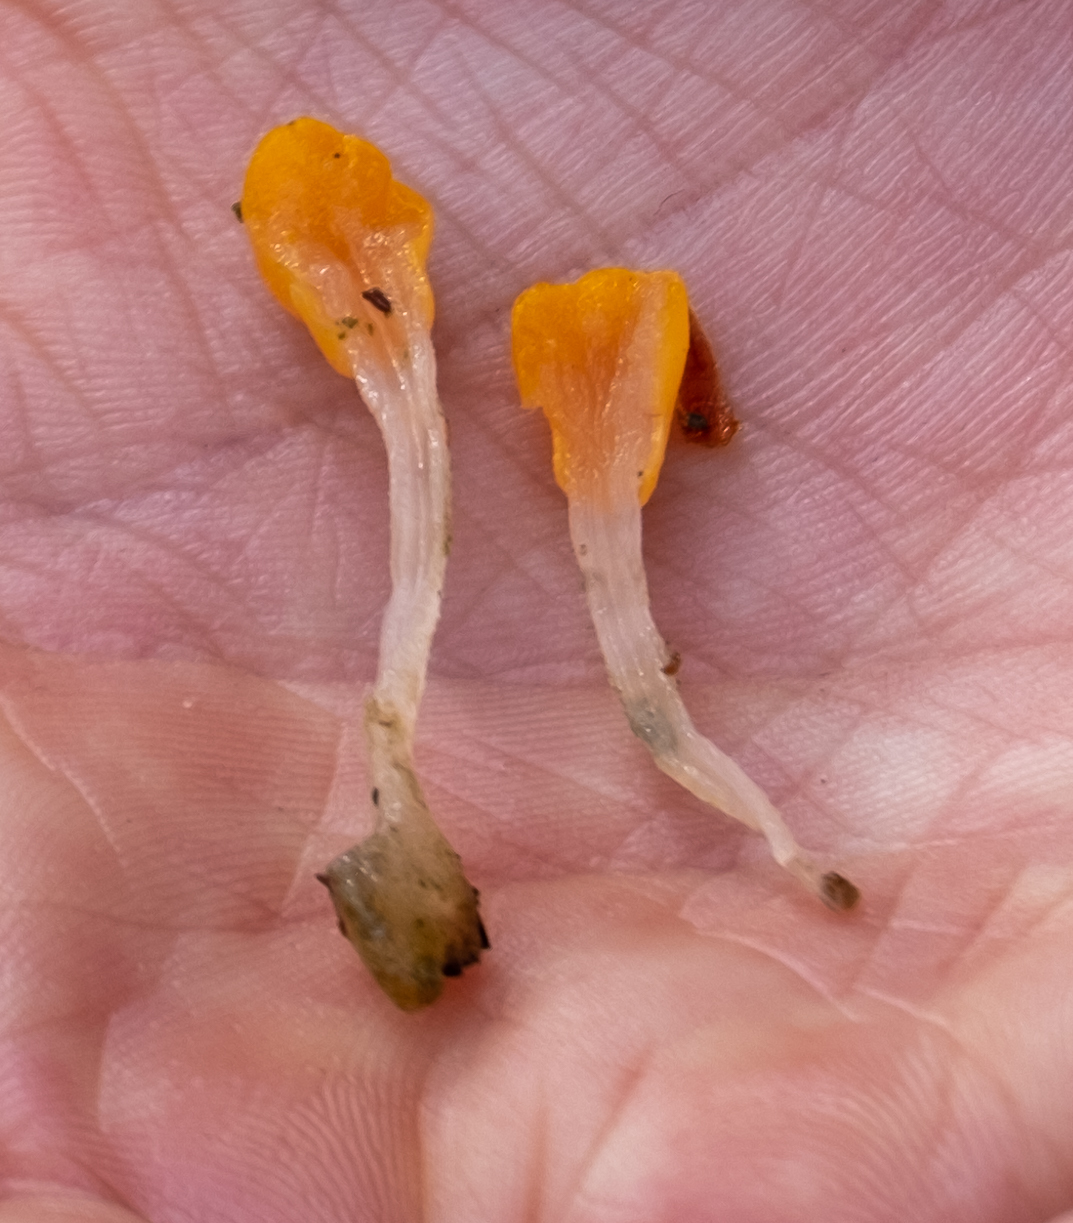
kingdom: Fungi
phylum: Ascomycota
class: Leotiomycetes
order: Helotiales
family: Cenangiaceae
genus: Mitrula
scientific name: Mitrula paludosa
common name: Bog beacon
